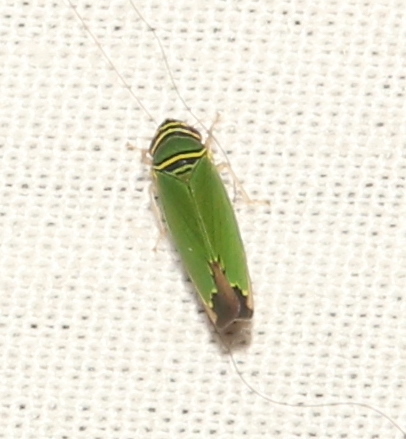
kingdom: Animalia
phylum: Arthropoda
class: Insecta
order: Hemiptera
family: Cicadellidae
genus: Tylozygus
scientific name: Tylozygus geometricus
